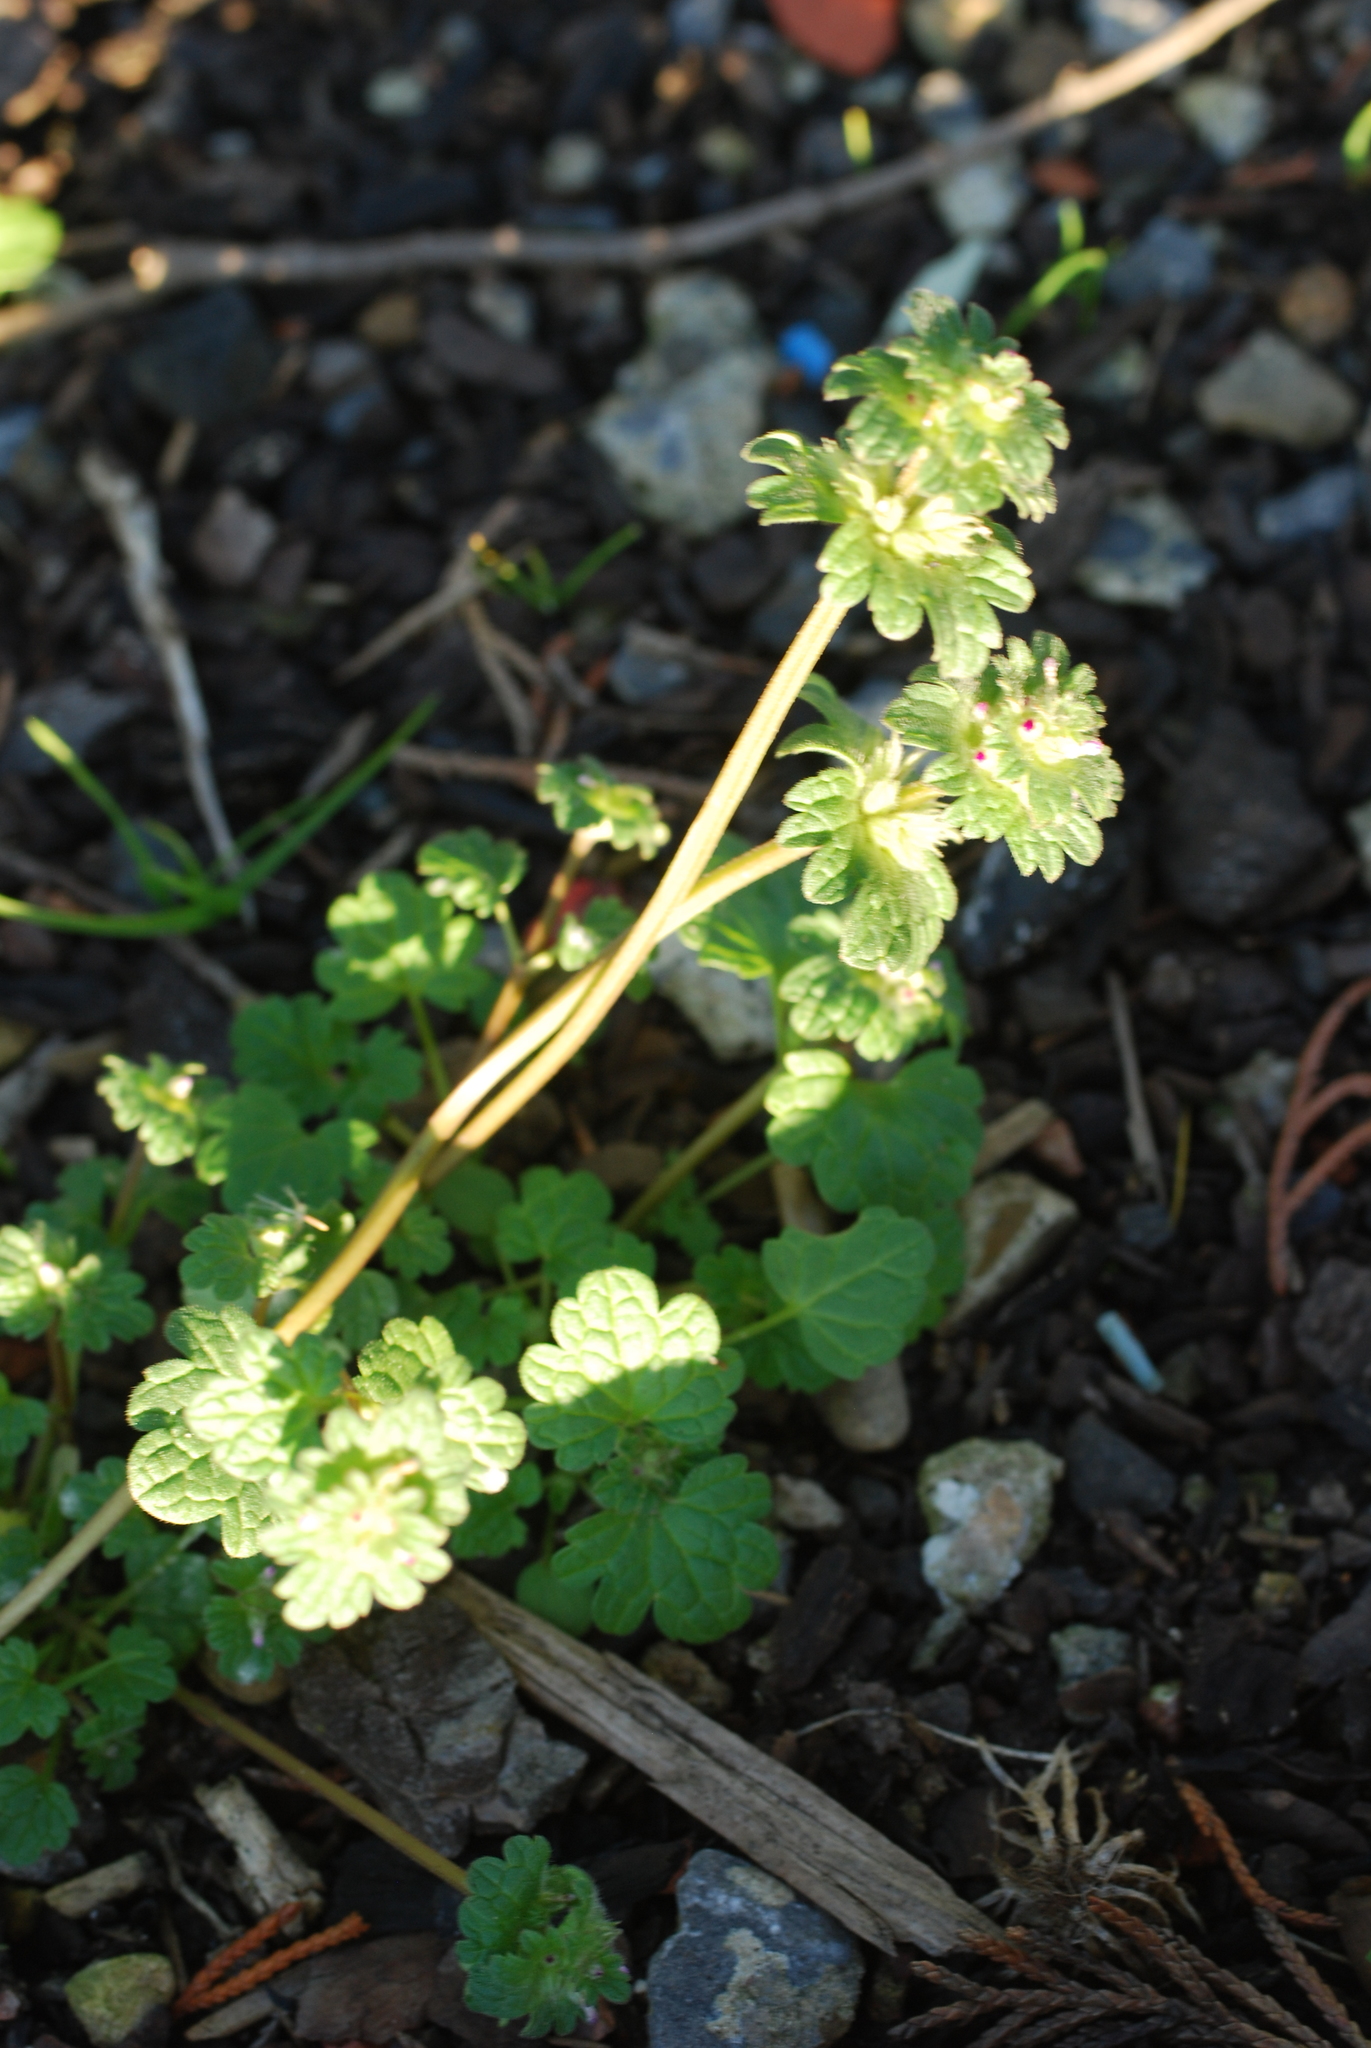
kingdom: Plantae
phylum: Tracheophyta
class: Magnoliopsida
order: Lamiales
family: Lamiaceae
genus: Lamium
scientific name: Lamium amplexicaule
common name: Henbit dead-nettle
